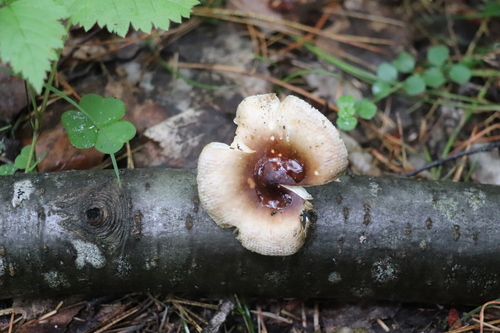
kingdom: Fungi
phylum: Basidiomycota
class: Agaricomycetes
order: Russulales
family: Russulaceae
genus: Russula
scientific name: Russula puellaris
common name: Yellowing brittlegill
